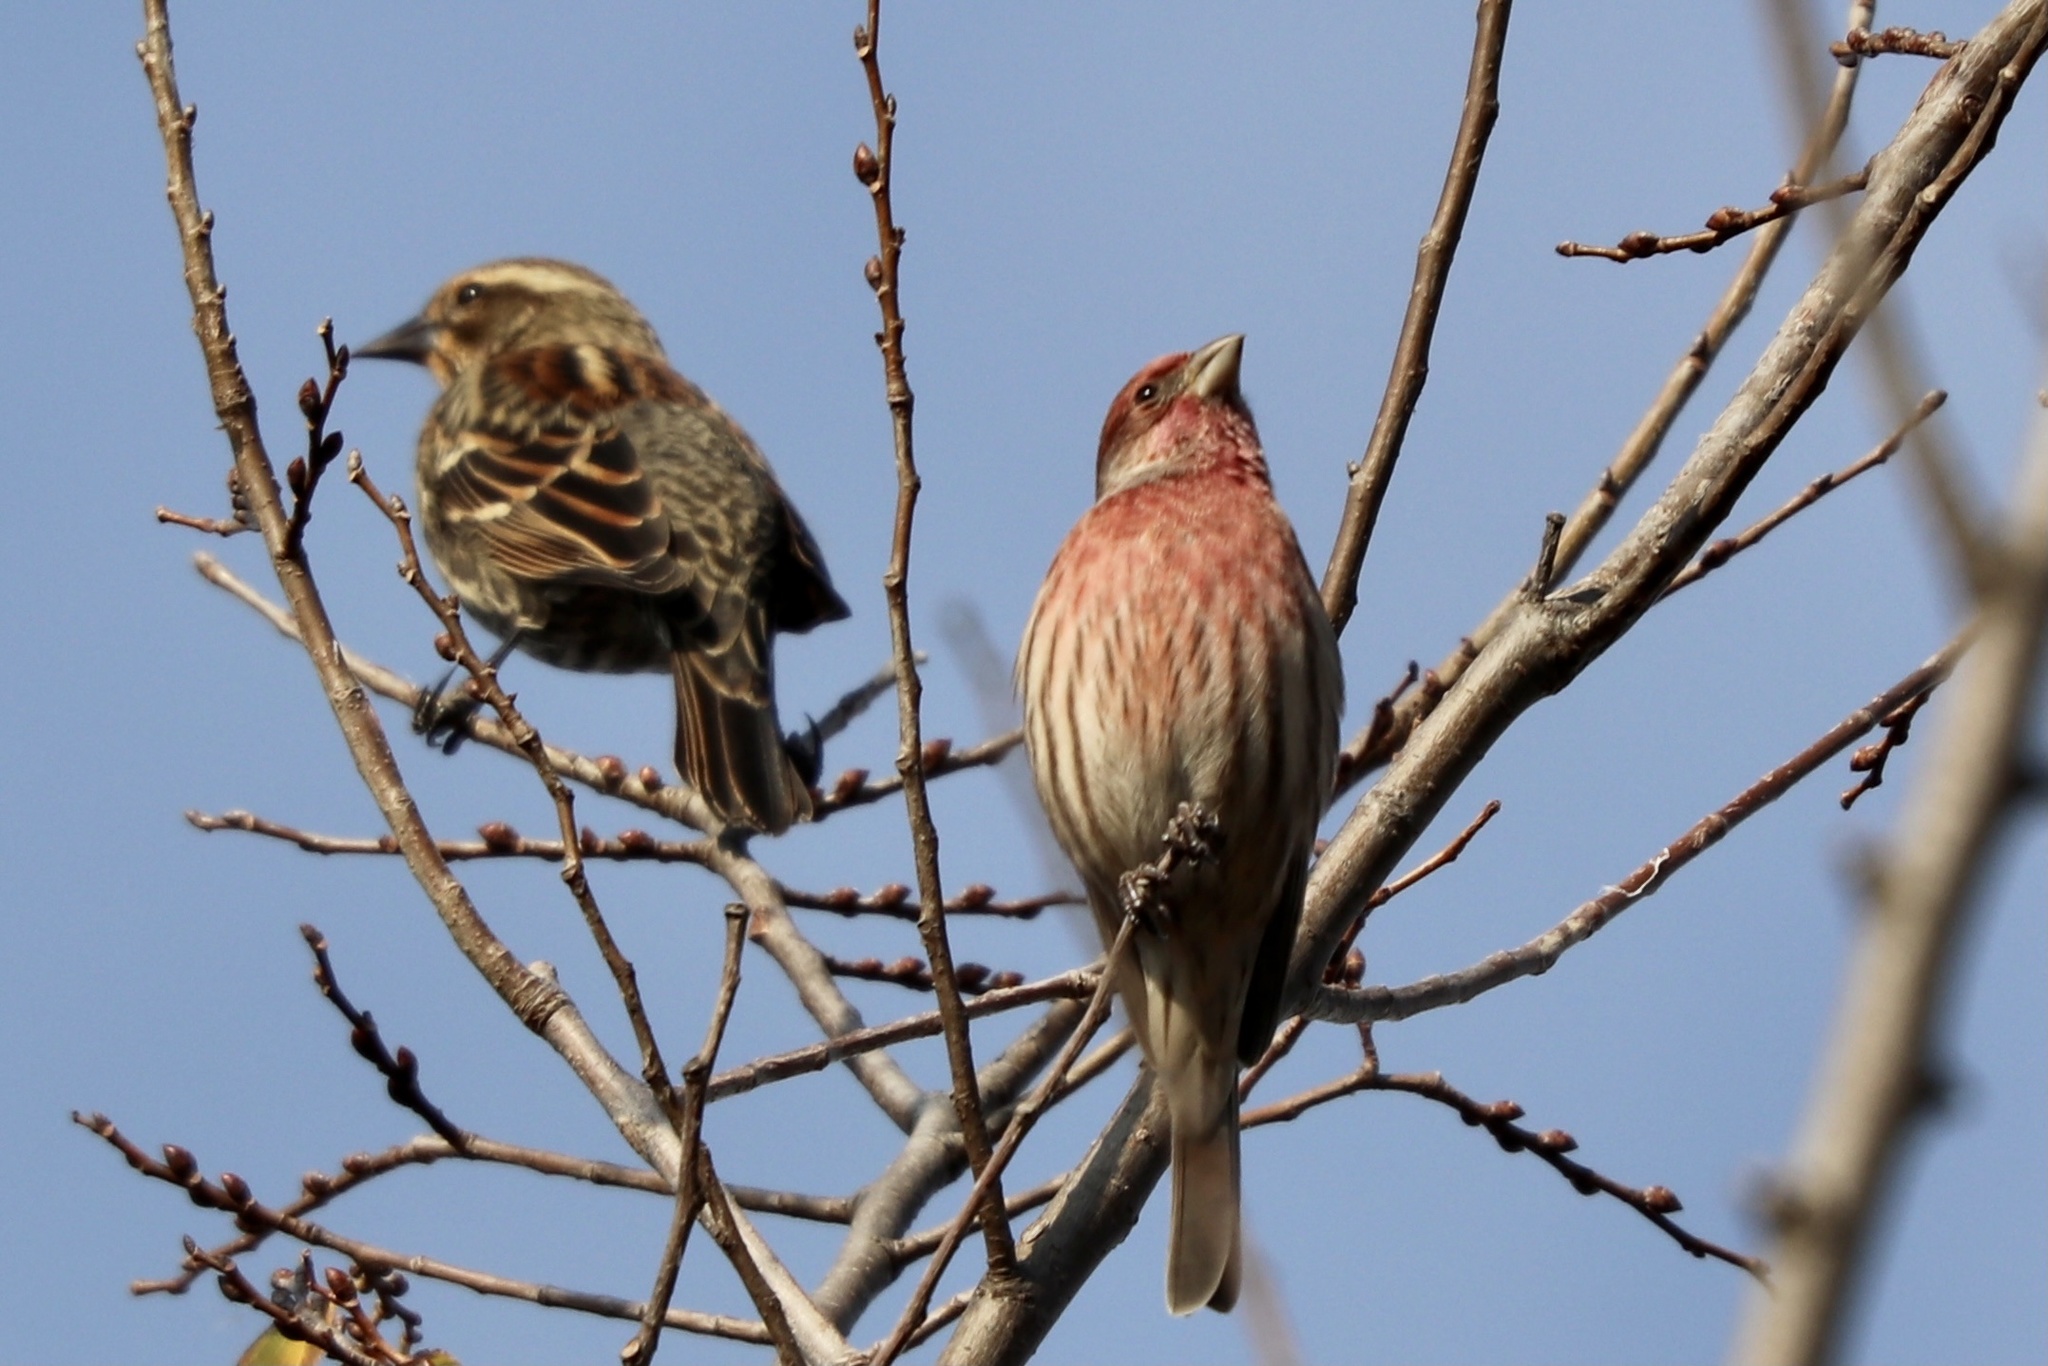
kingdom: Animalia
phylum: Chordata
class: Aves
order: Passeriformes
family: Fringillidae
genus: Haemorhous
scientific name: Haemorhous mexicanus
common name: House finch
